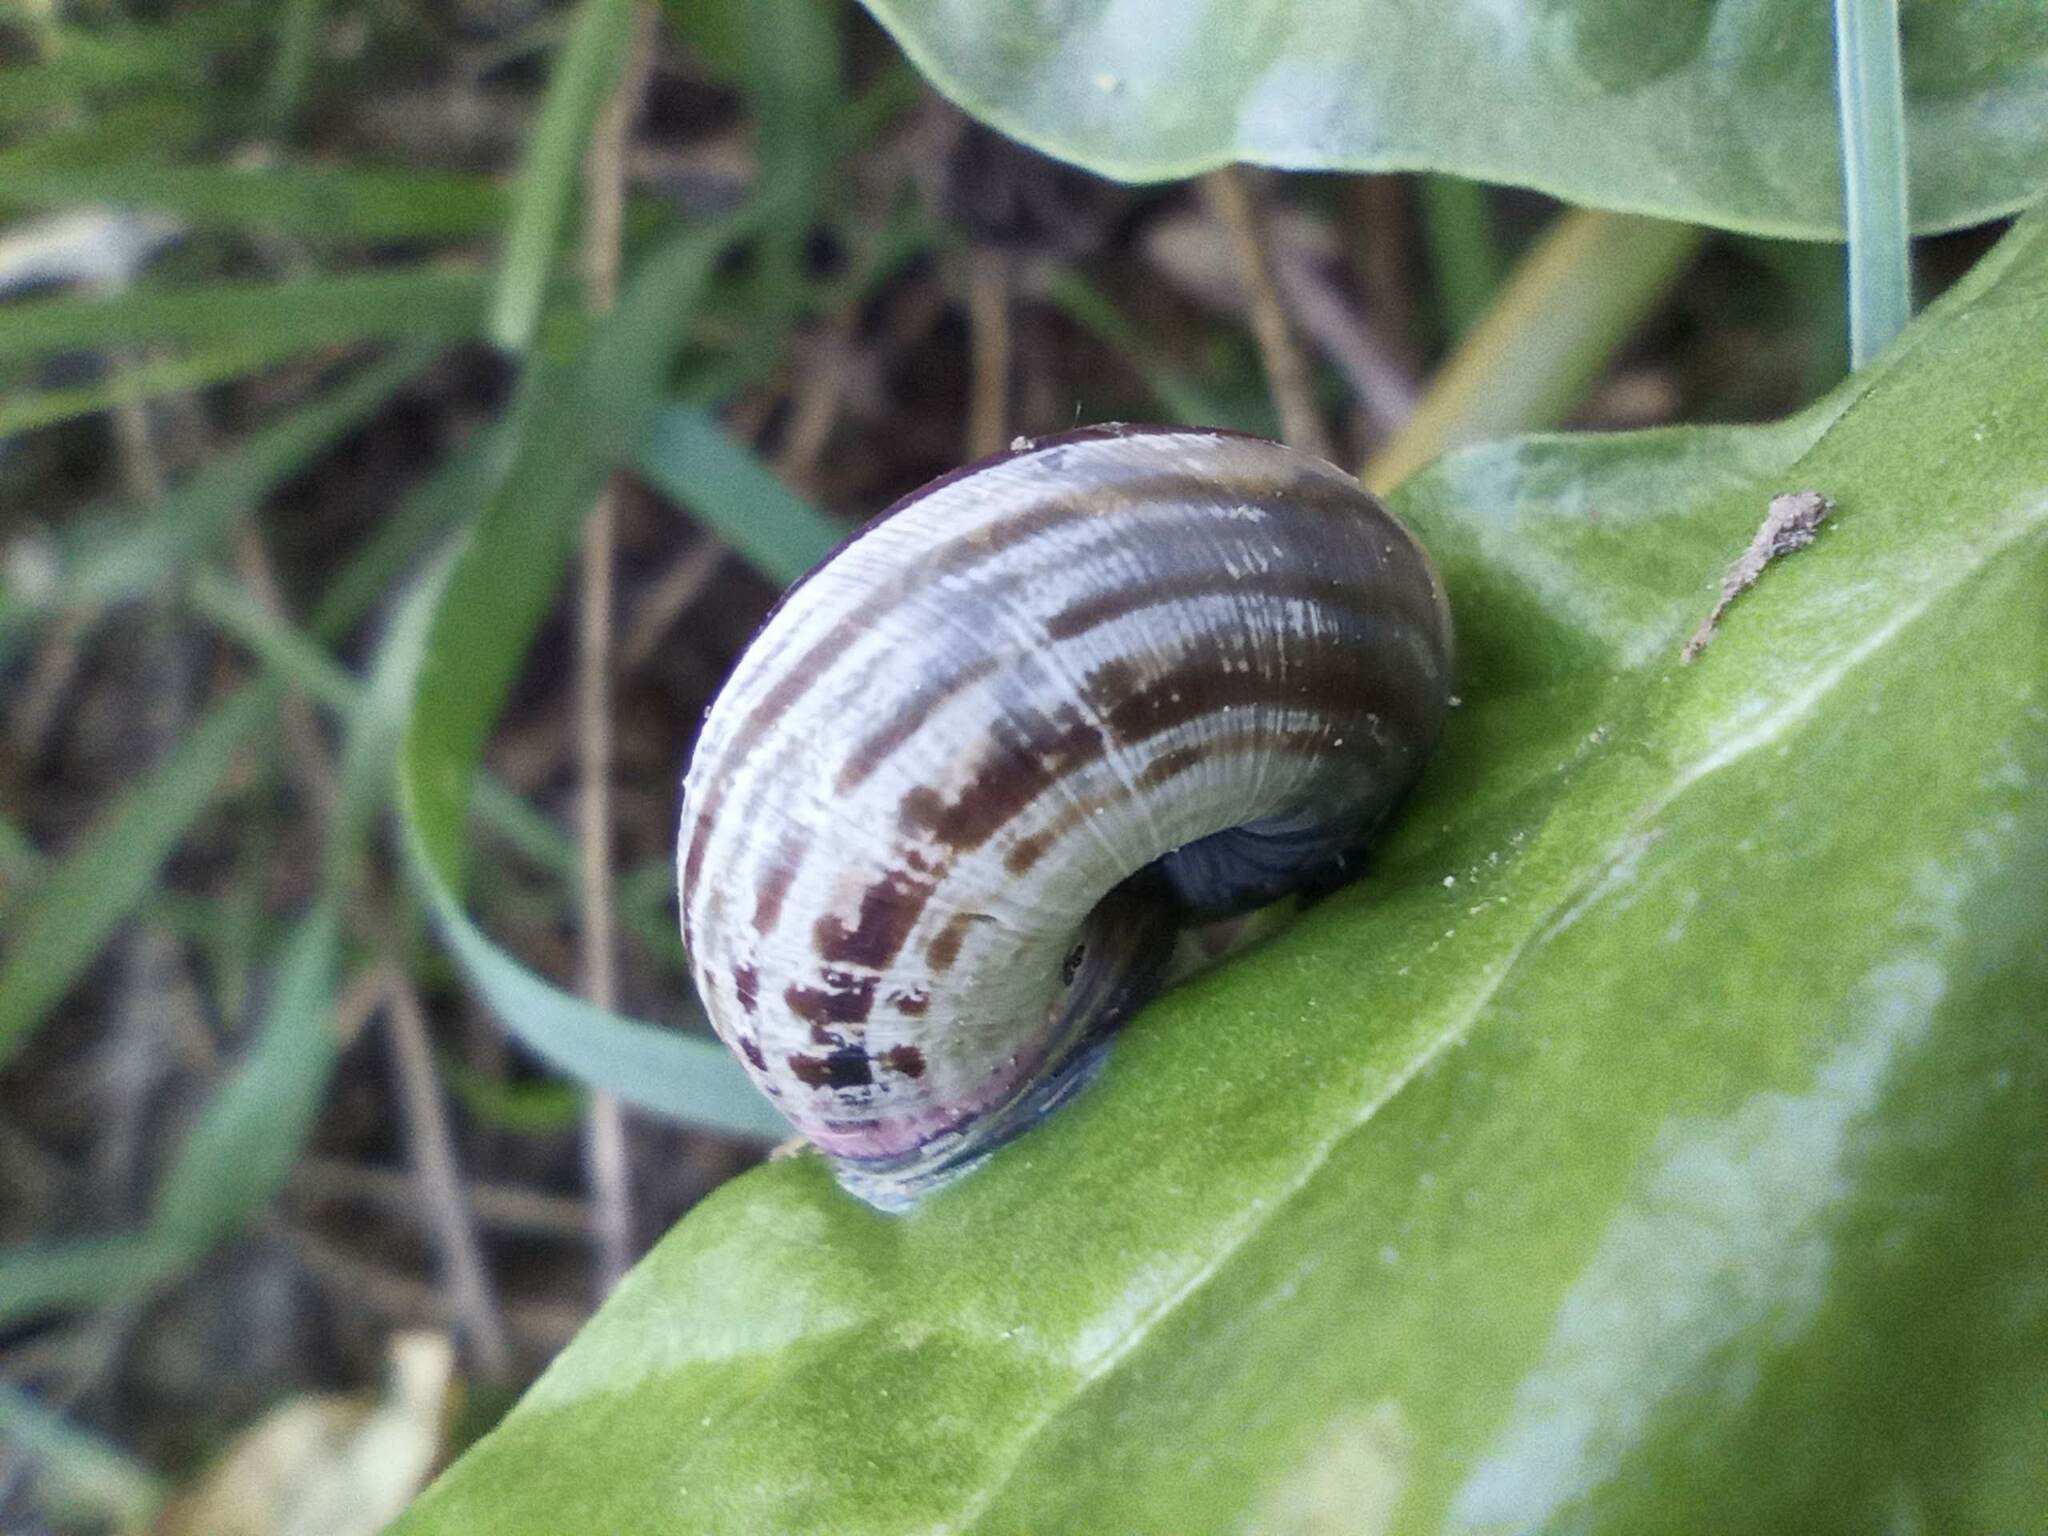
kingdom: Animalia
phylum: Mollusca
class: Gastropoda
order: Stylommatophora
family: Helicidae
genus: Theba
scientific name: Theba pisana
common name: White snail
